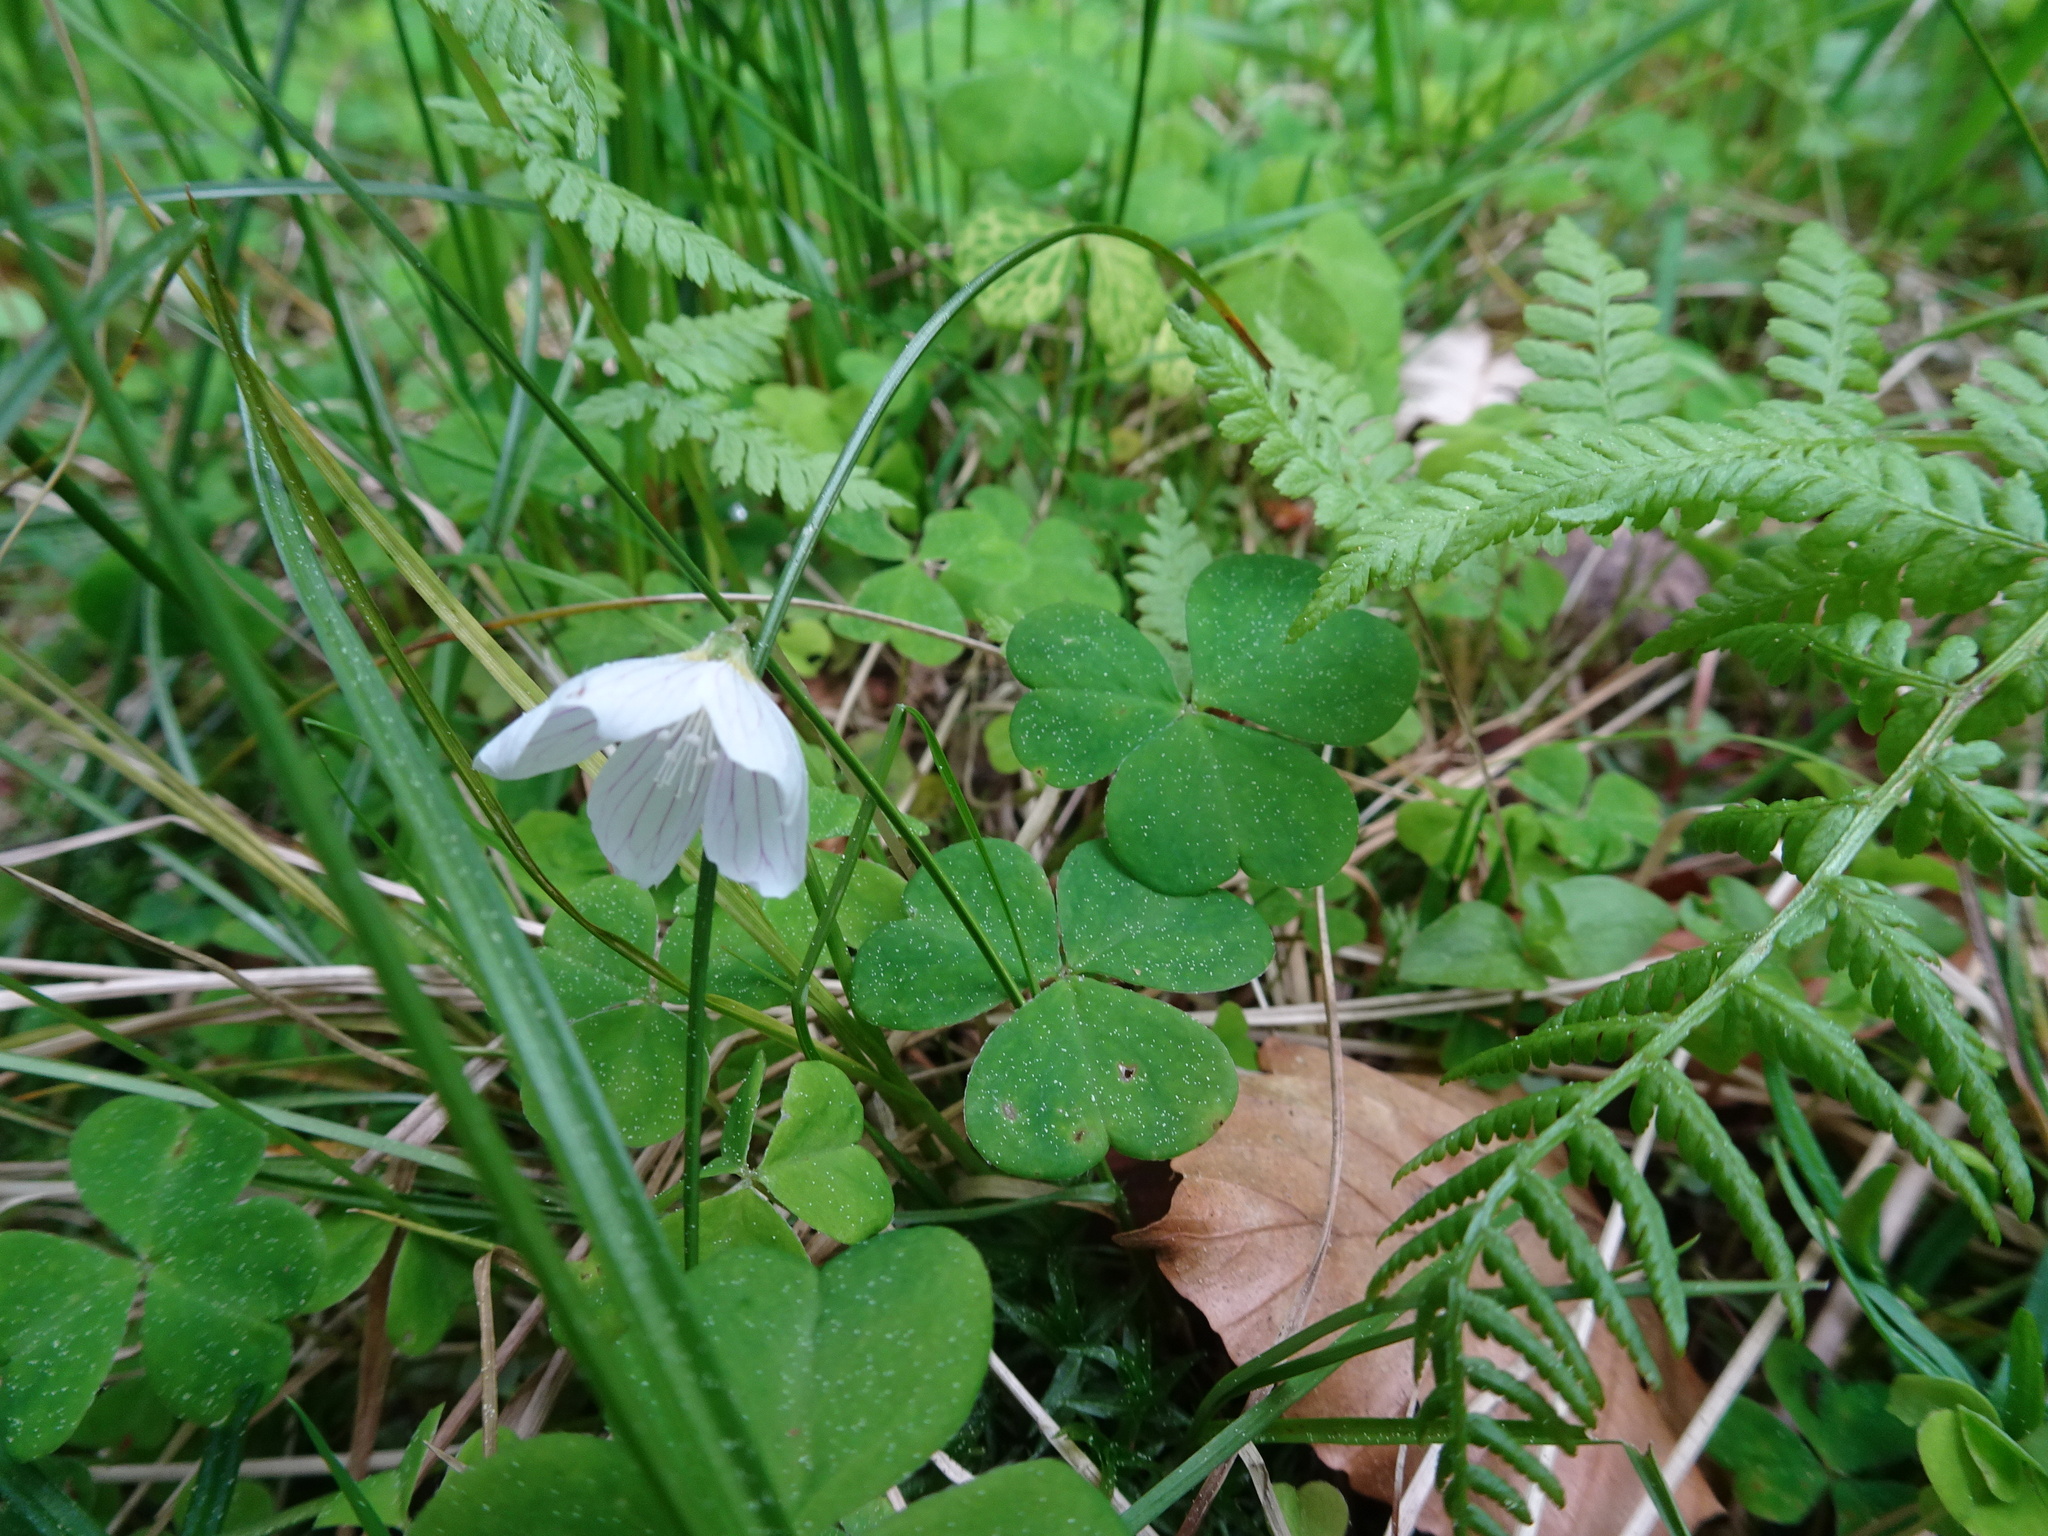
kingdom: Plantae
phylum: Tracheophyta
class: Magnoliopsida
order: Oxalidales
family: Oxalidaceae
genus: Oxalis
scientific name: Oxalis acetosella
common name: Wood-sorrel
